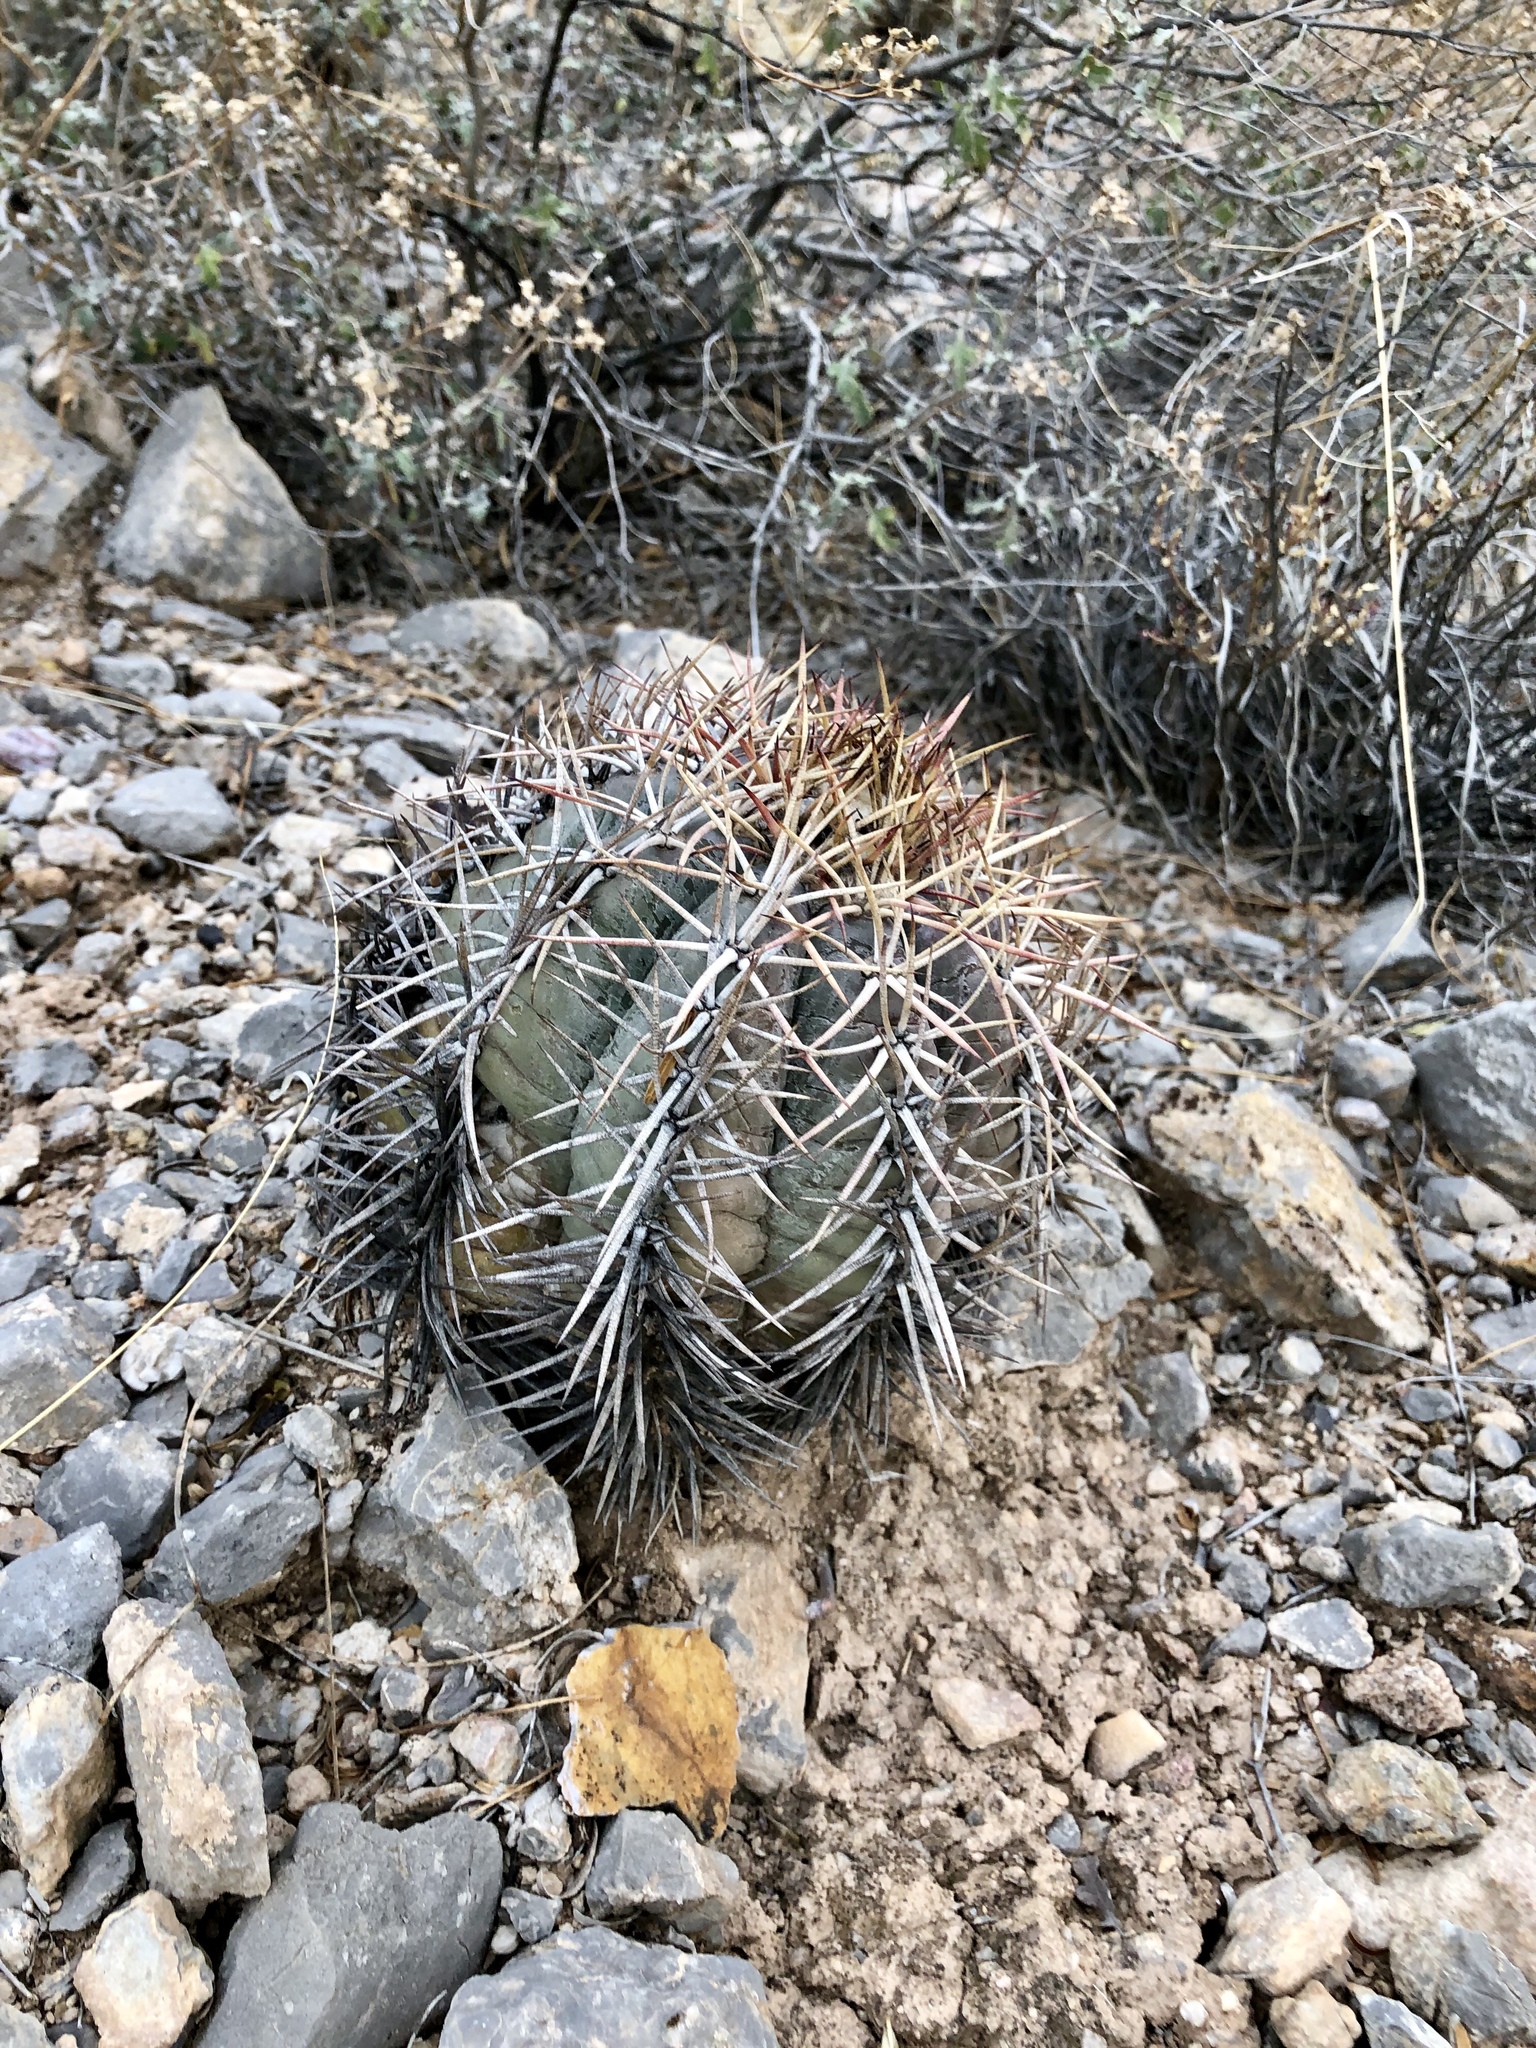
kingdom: Plantae
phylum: Tracheophyta
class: Magnoliopsida
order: Caryophyllales
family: Cactaceae
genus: Echinocactus
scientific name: Echinocactus horizonthalonius
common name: Devilshead
